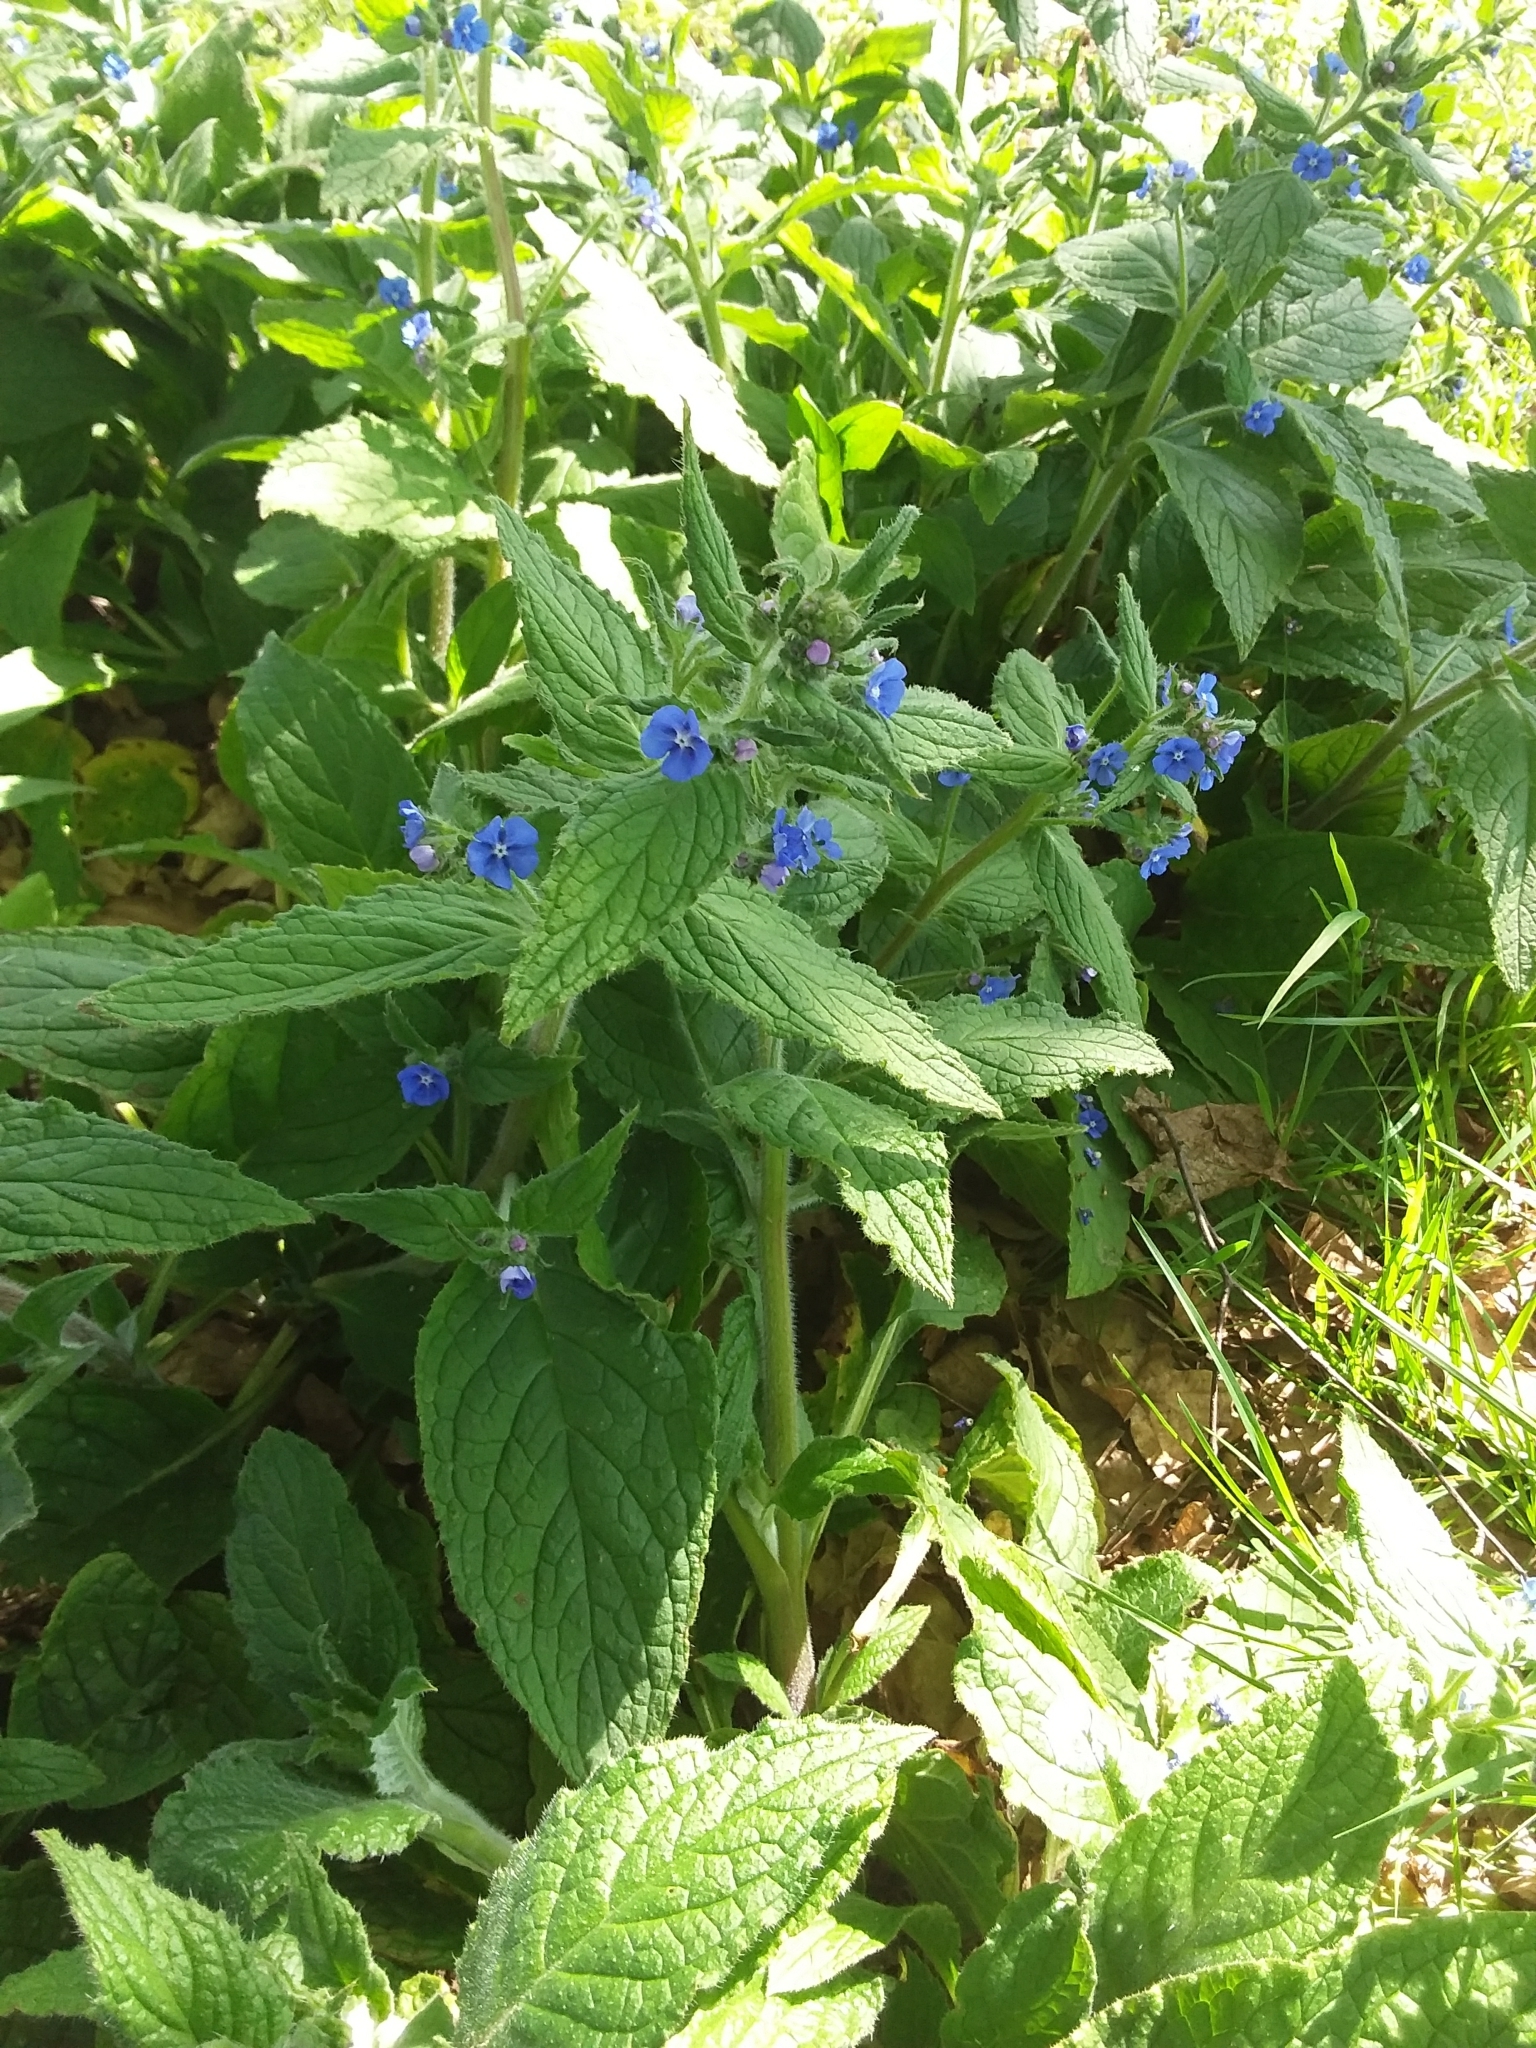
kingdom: Plantae
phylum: Tracheophyta
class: Magnoliopsida
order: Boraginales
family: Boraginaceae
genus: Pentaglottis
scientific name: Pentaglottis sempervirens
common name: Green alkanet
